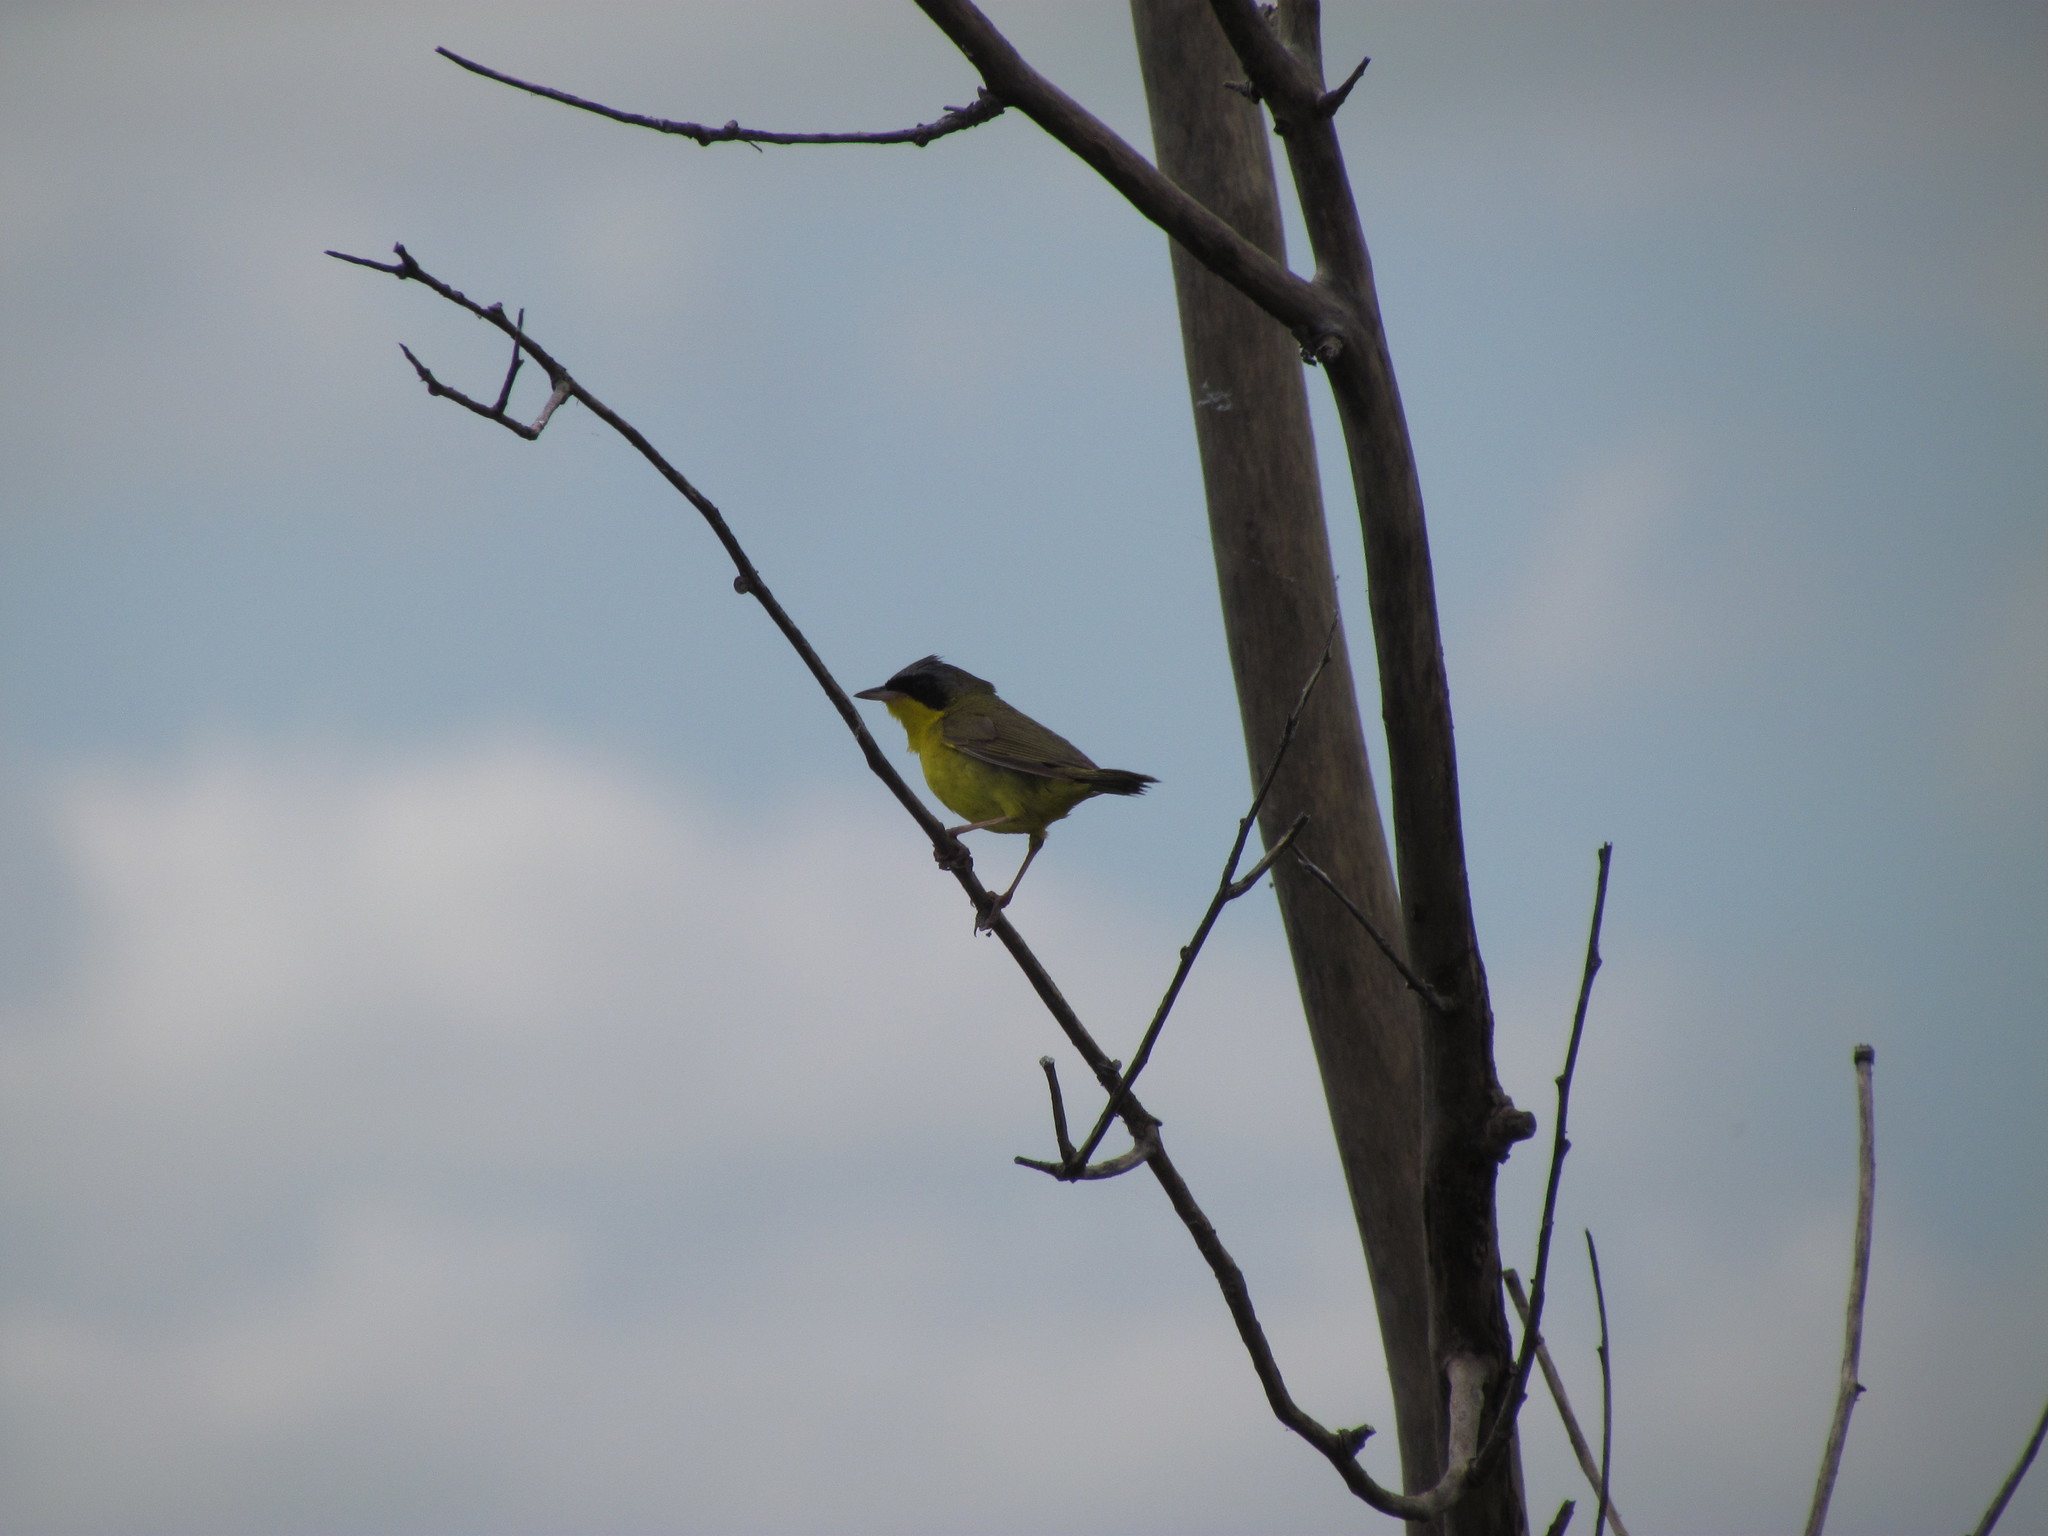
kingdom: Animalia
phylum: Chordata
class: Aves
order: Passeriformes
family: Parulidae
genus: Geothlypis
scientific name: Geothlypis velata
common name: Southern yellowthroat
